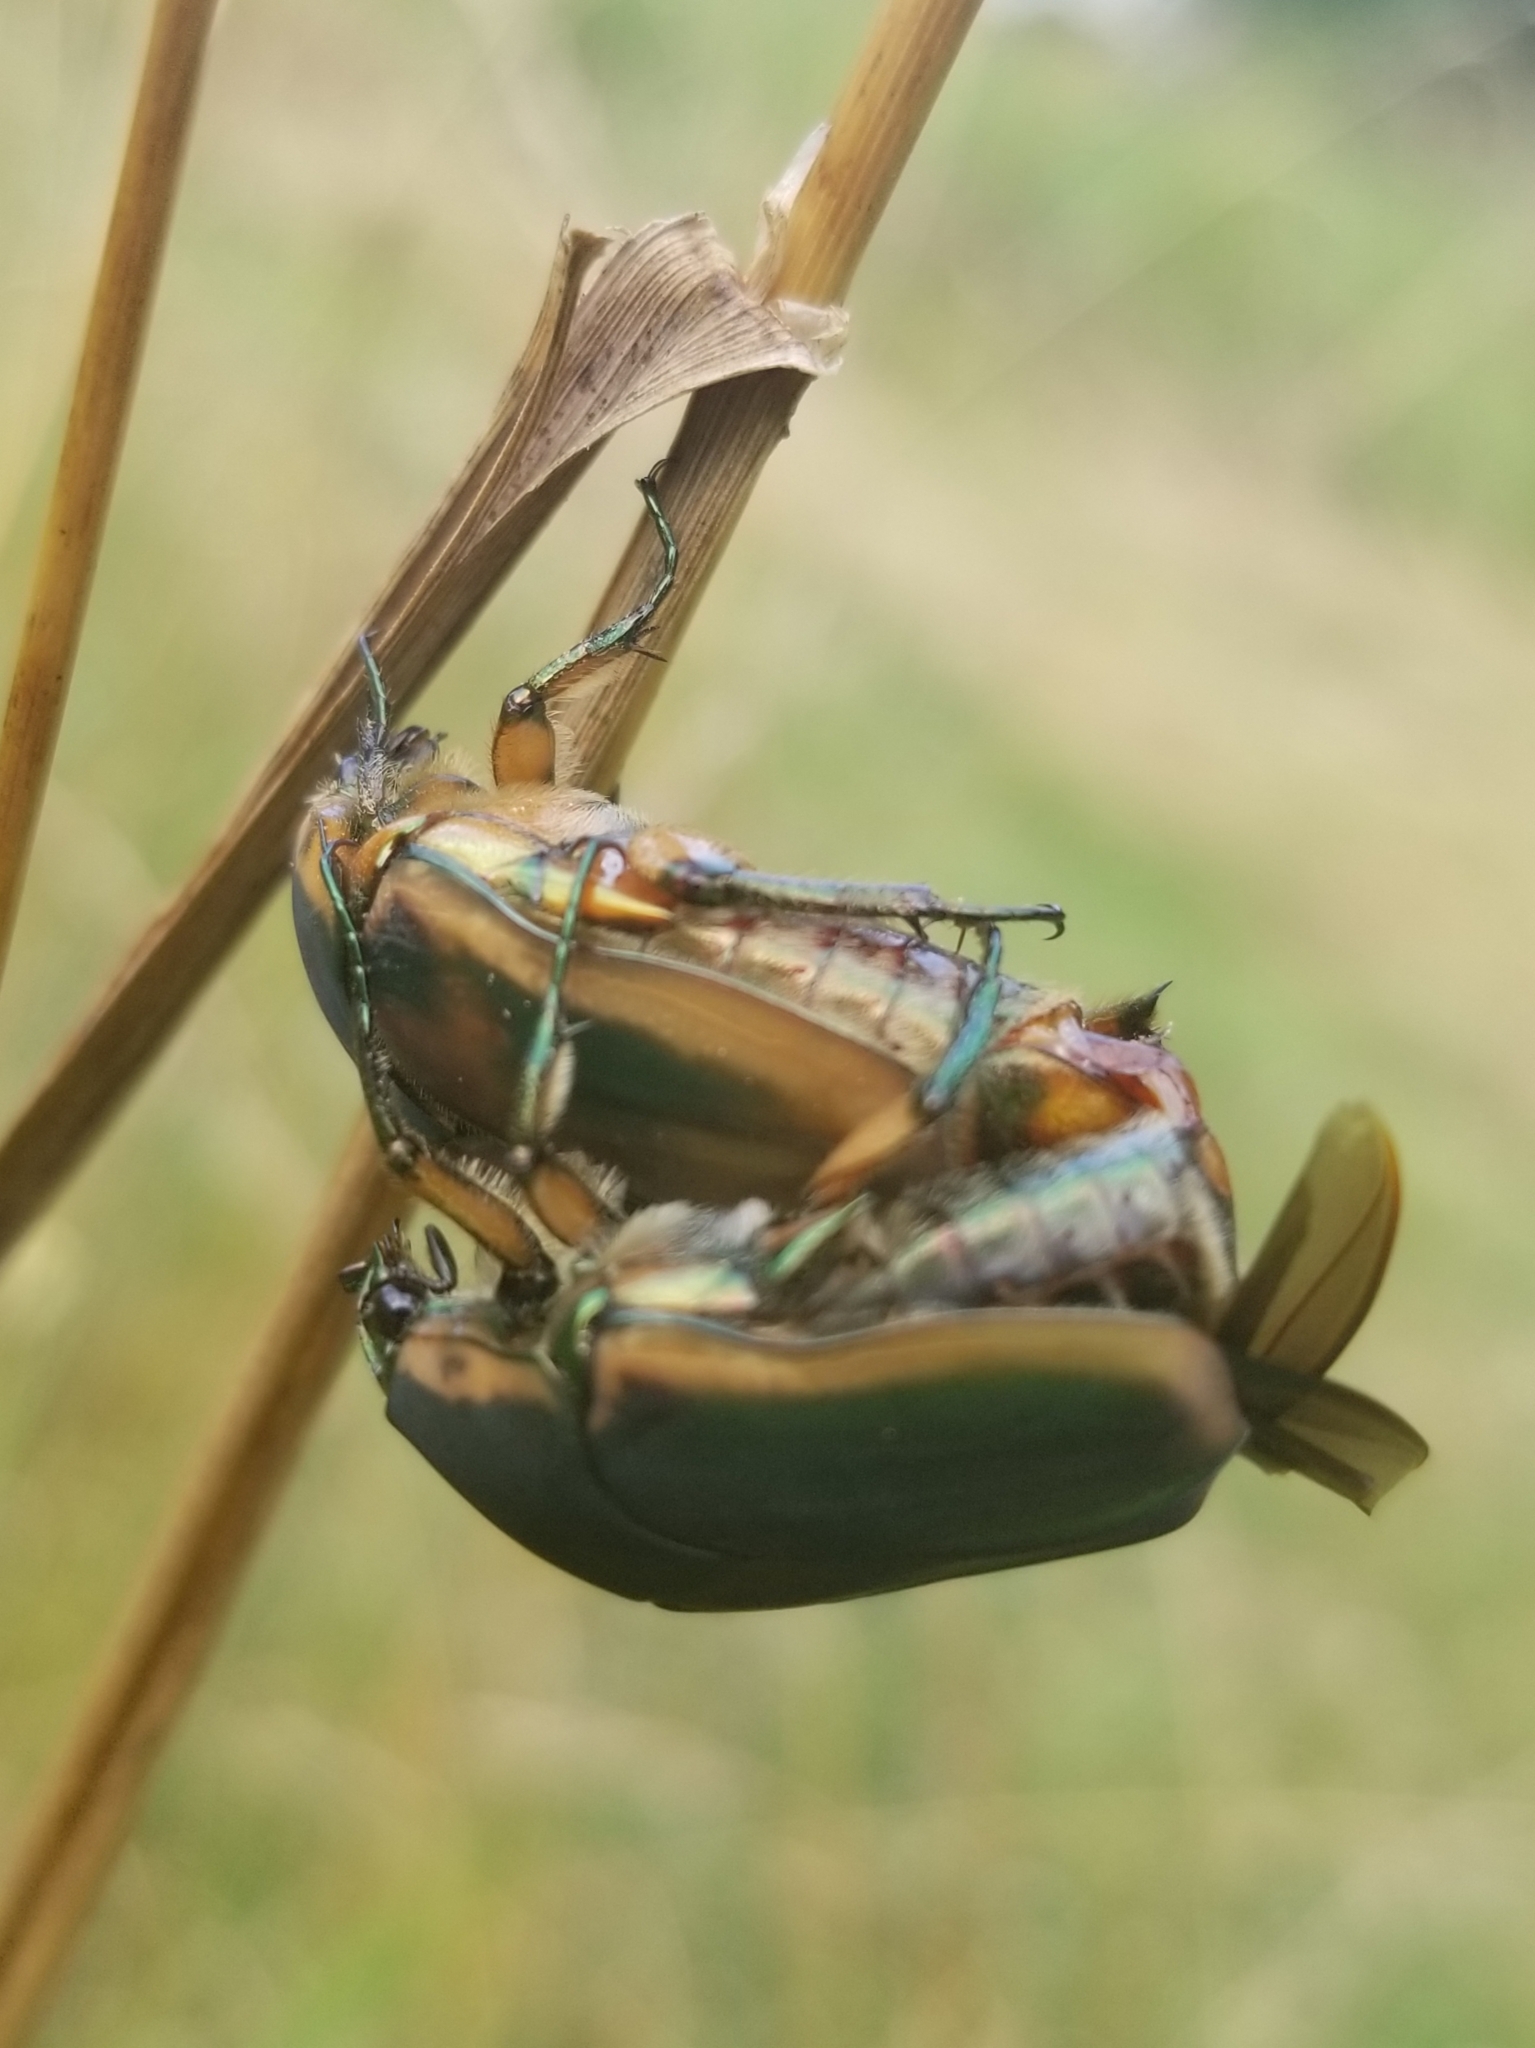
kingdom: Animalia
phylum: Arthropoda
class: Insecta
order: Coleoptera
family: Scarabaeidae
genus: Cotinis
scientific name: Cotinis nitida
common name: Common green june beetle
